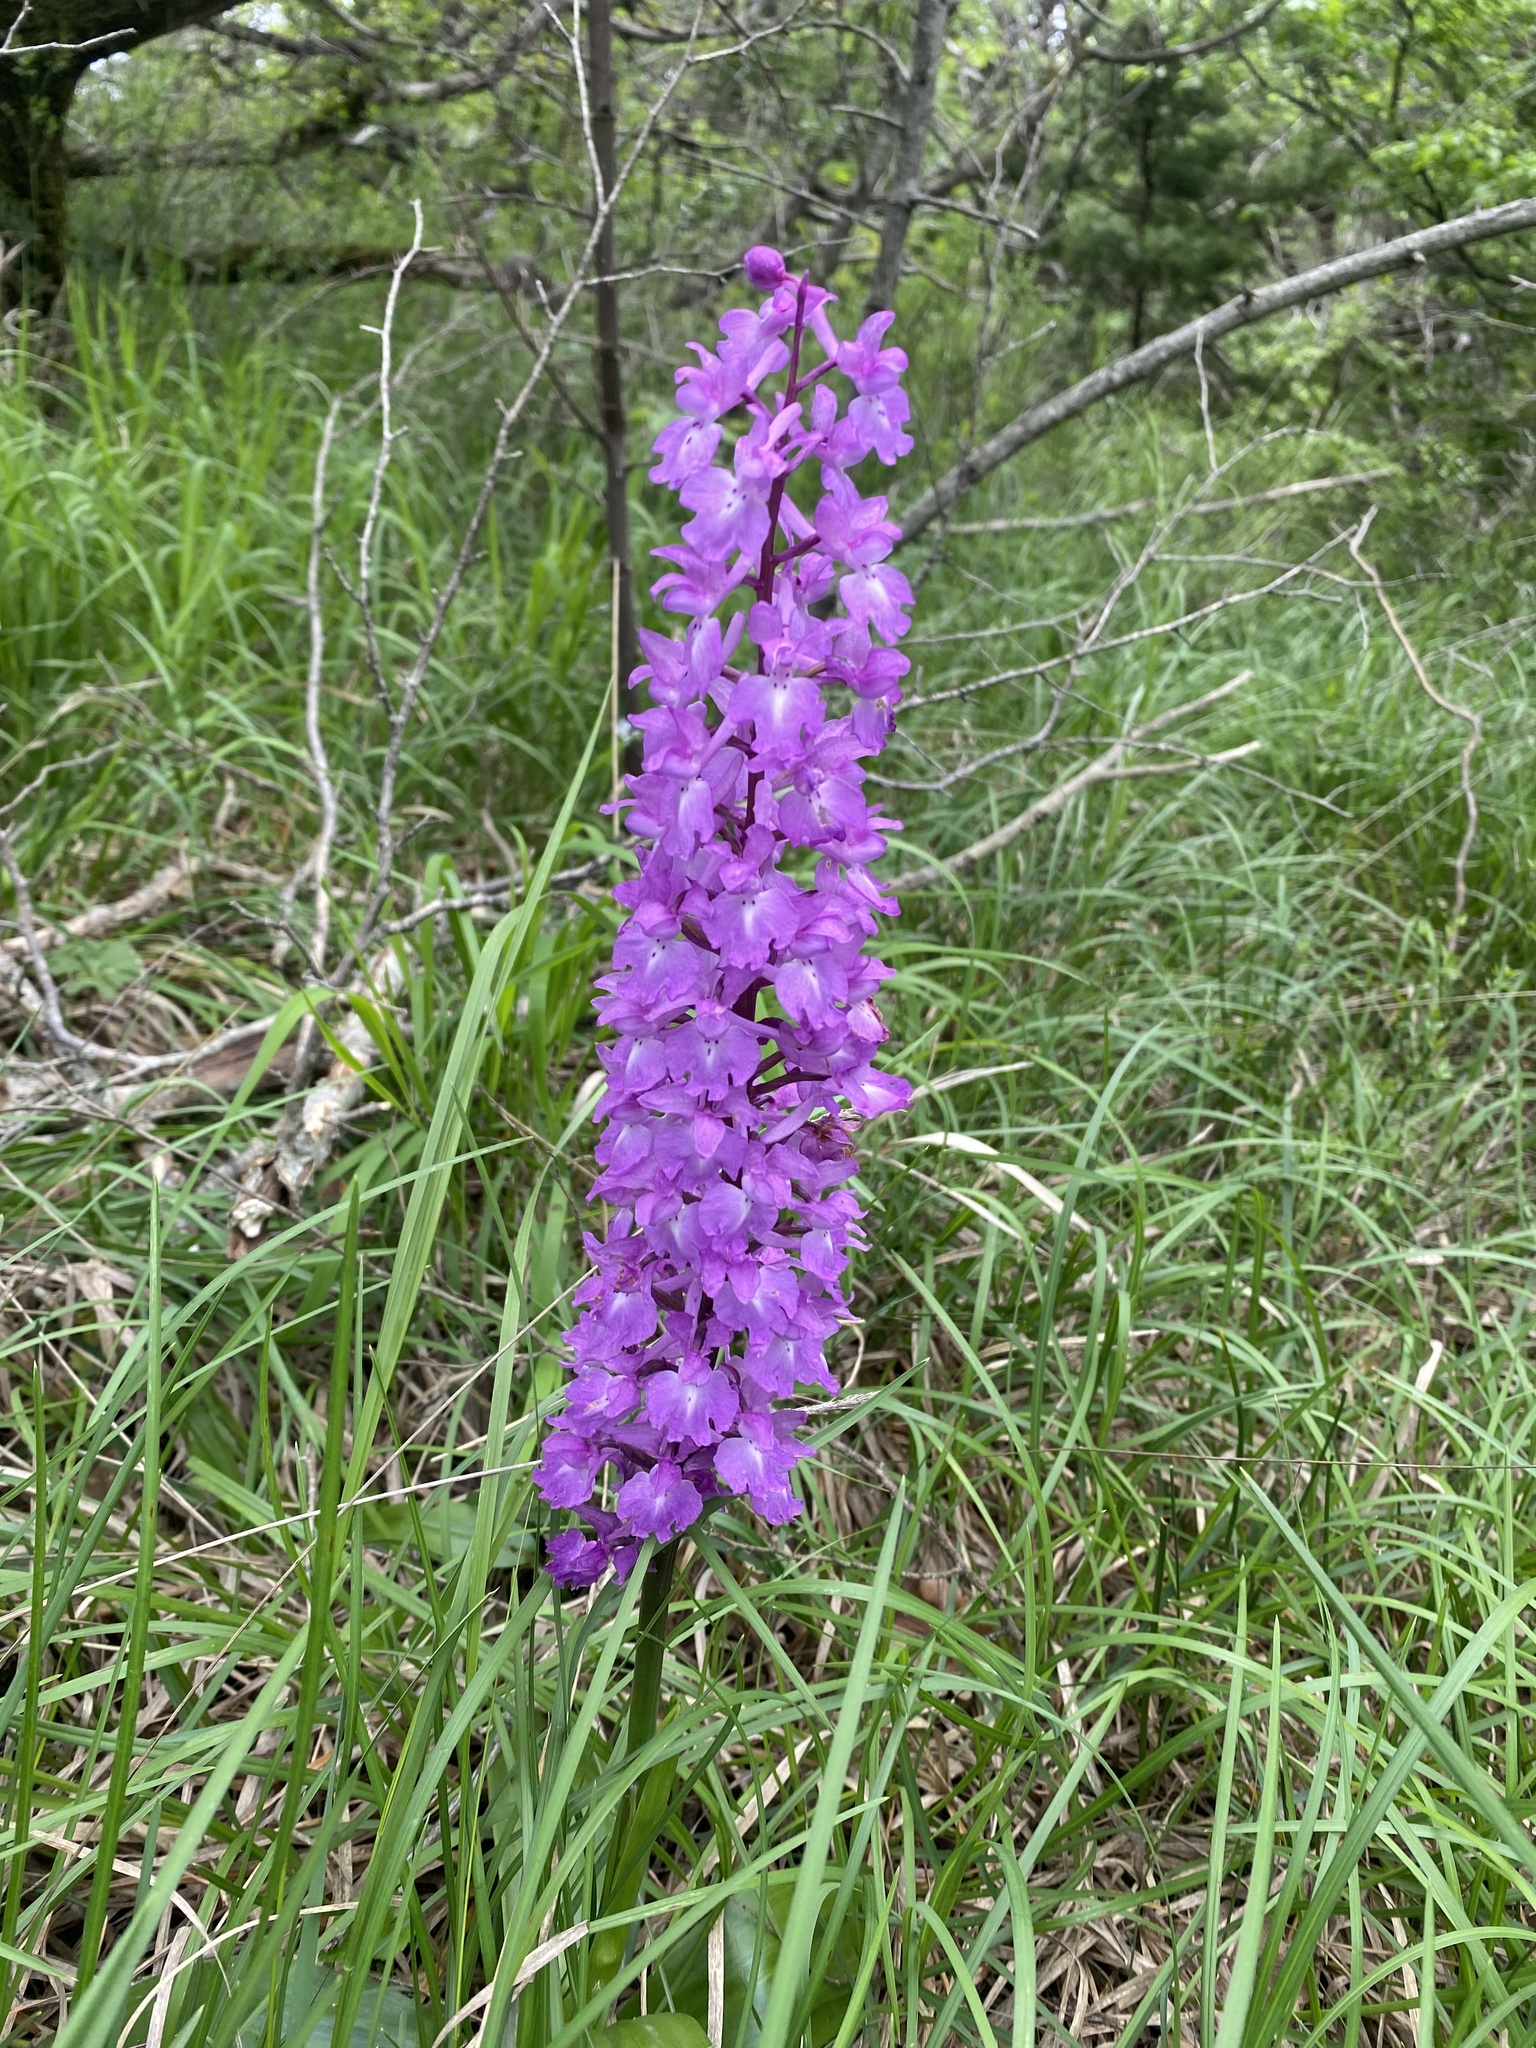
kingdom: Plantae
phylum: Tracheophyta
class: Liliopsida
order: Asparagales
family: Orchidaceae
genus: Orchis
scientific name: Orchis mascula
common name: Early-purple orchid
